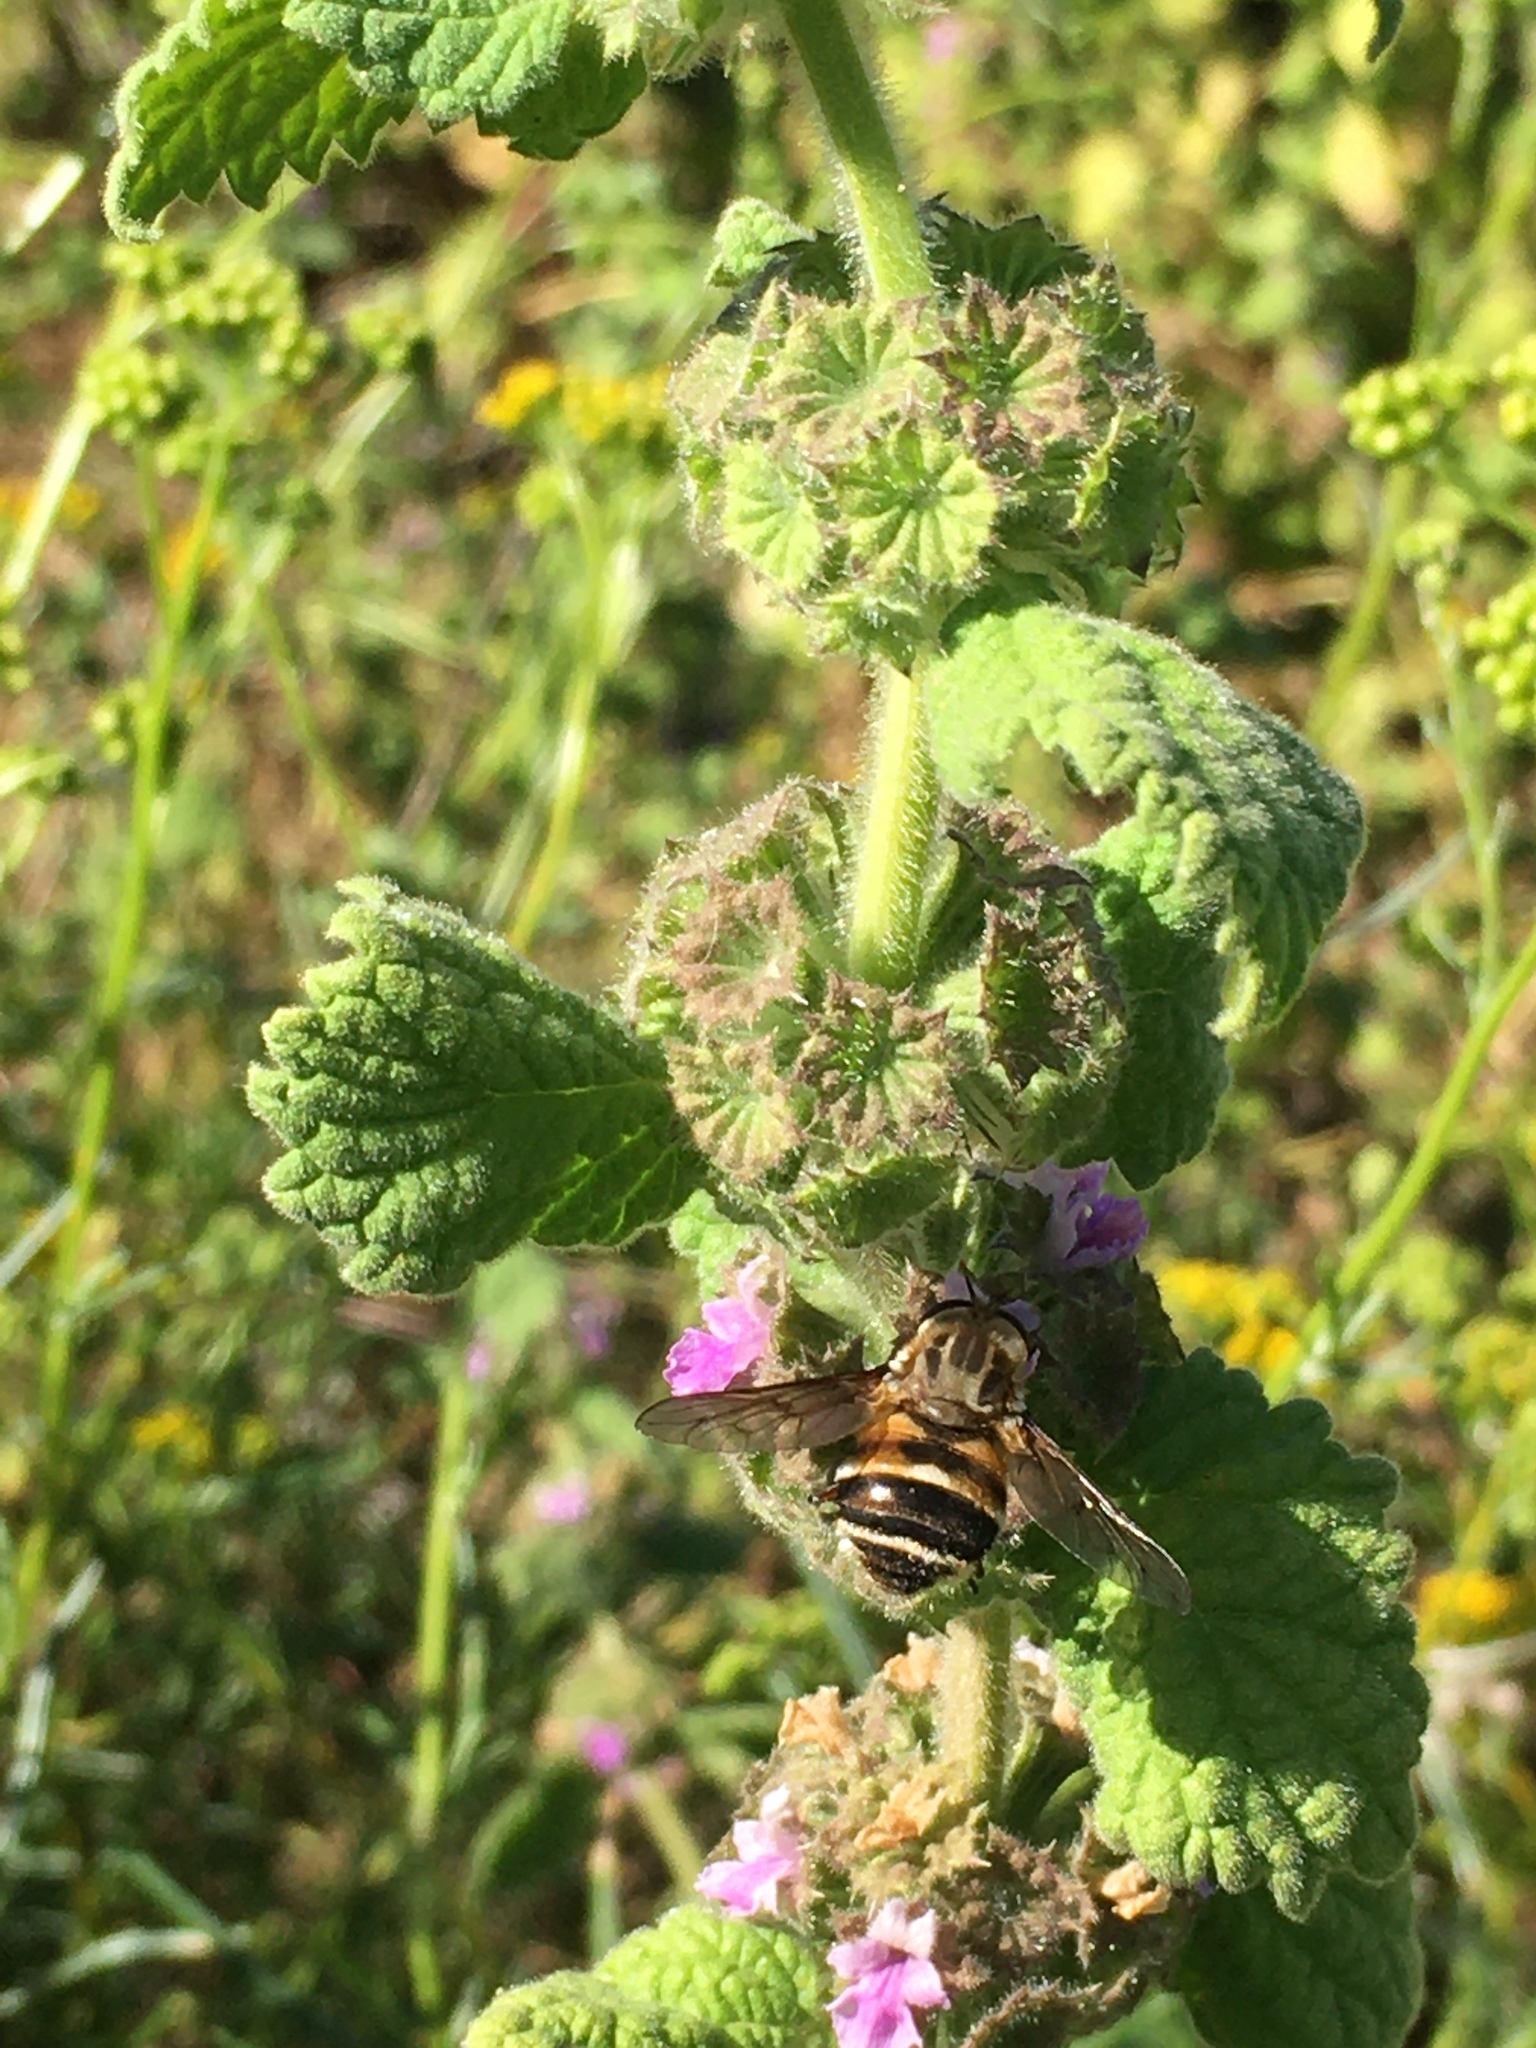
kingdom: Plantae
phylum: Tracheophyta
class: Magnoliopsida
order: Lamiales
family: Lamiaceae
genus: Pseudodictamnus
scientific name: Pseudodictamnus africanus
